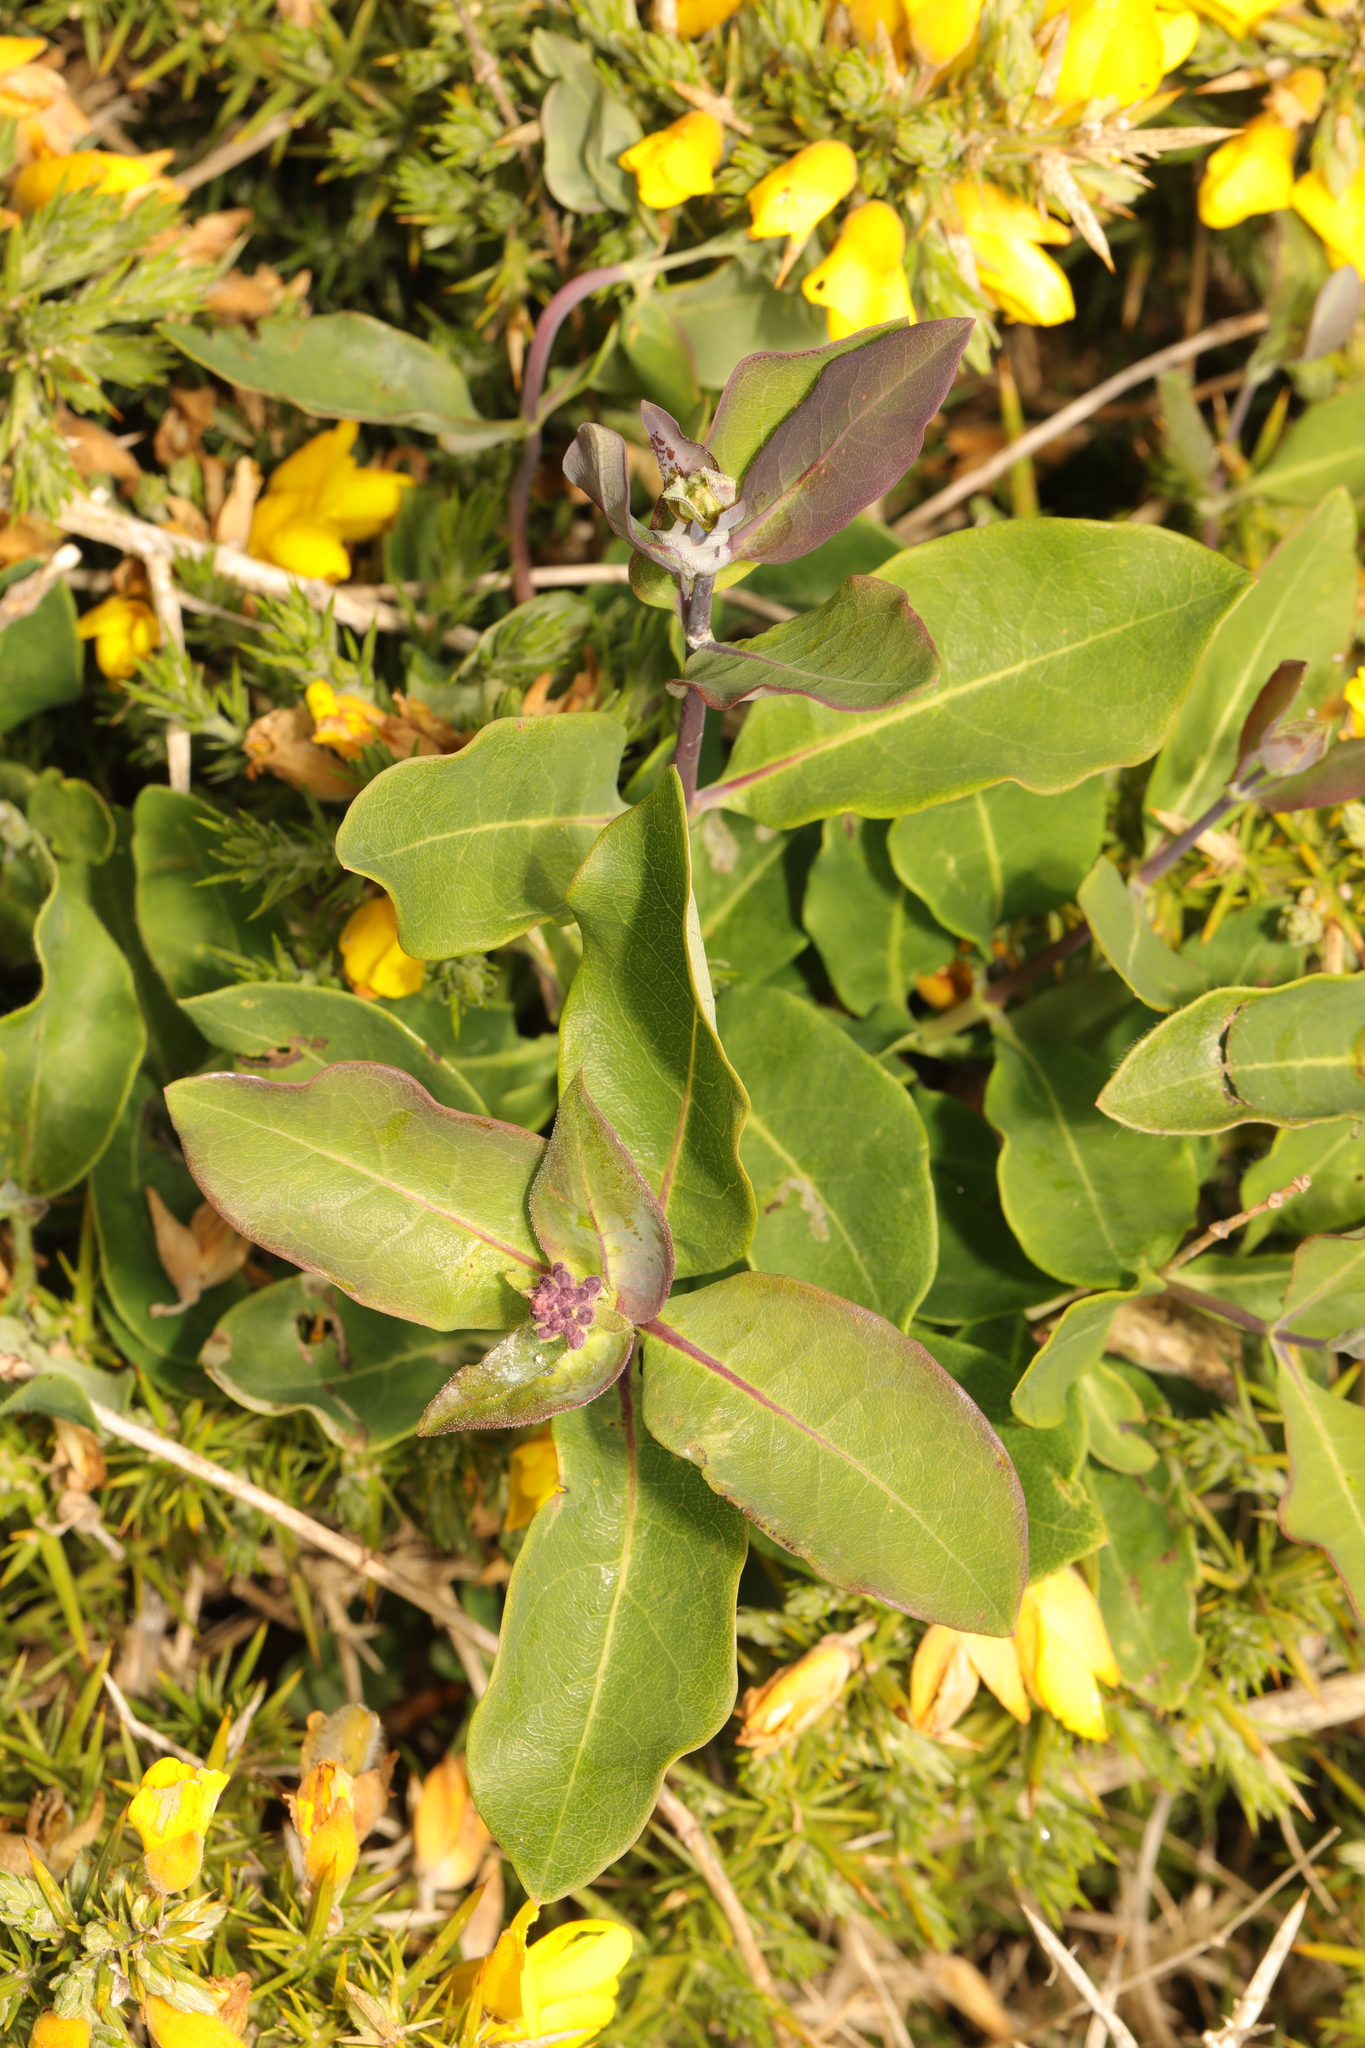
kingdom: Plantae
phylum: Tracheophyta
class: Magnoliopsida
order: Dipsacales
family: Caprifoliaceae
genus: Lonicera
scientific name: Lonicera periclymenum
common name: European honeysuckle
